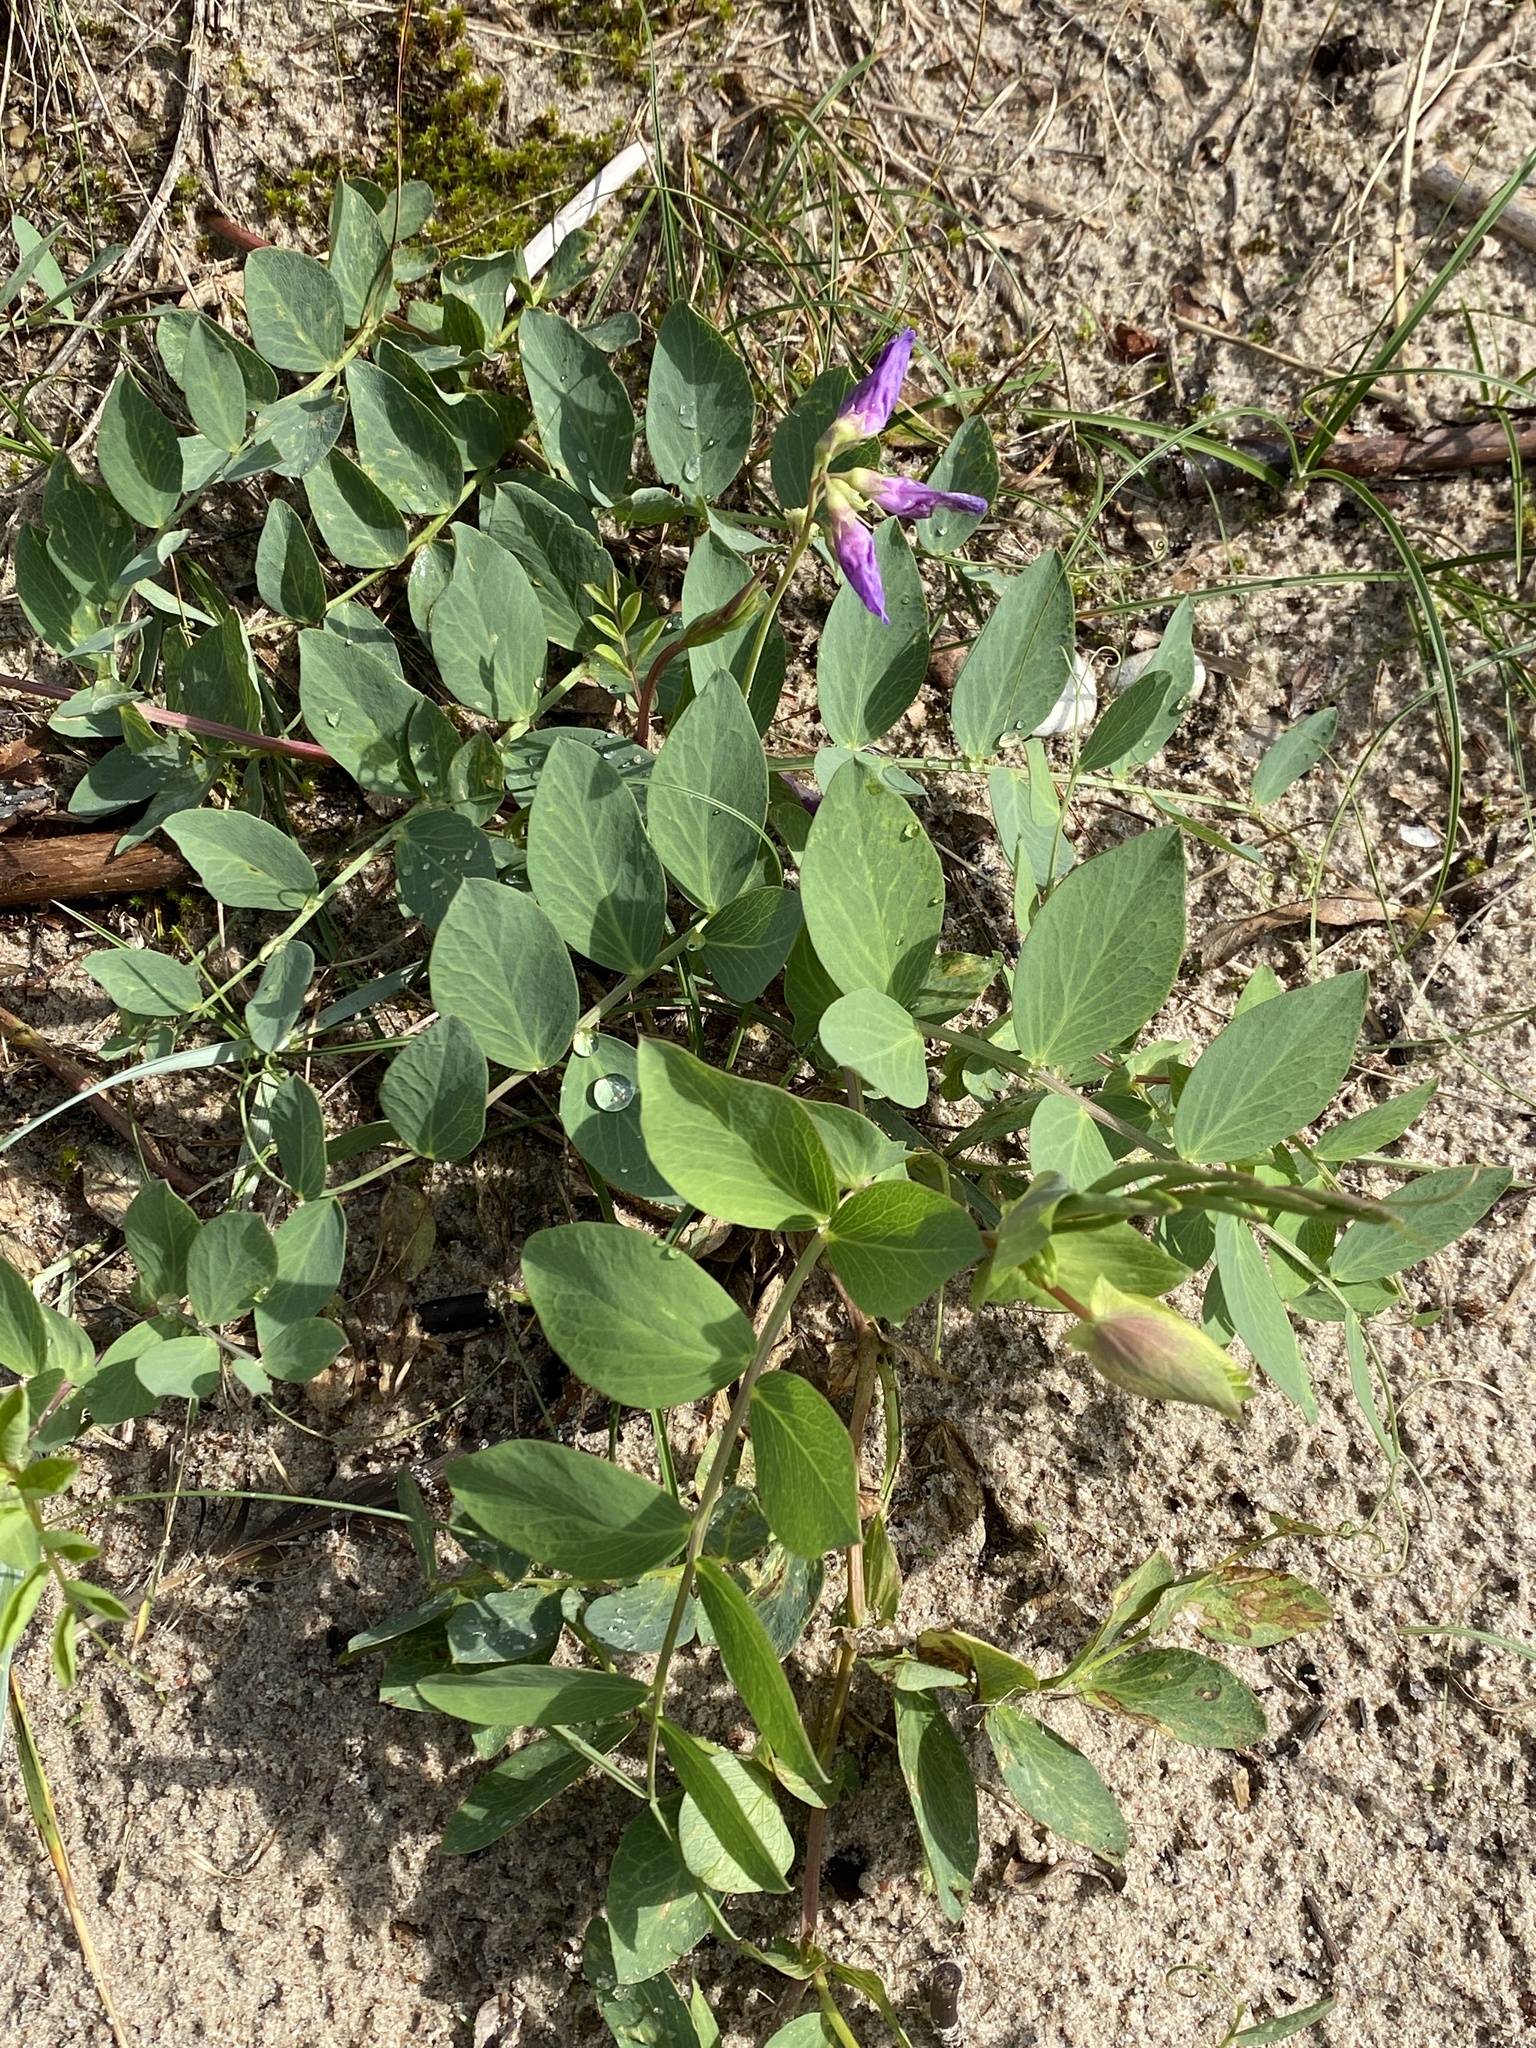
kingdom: Plantae
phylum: Tracheophyta
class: Magnoliopsida
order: Fabales
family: Fabaceae
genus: Lathyrus
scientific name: Lathyrus japonicus
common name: Sea pea
